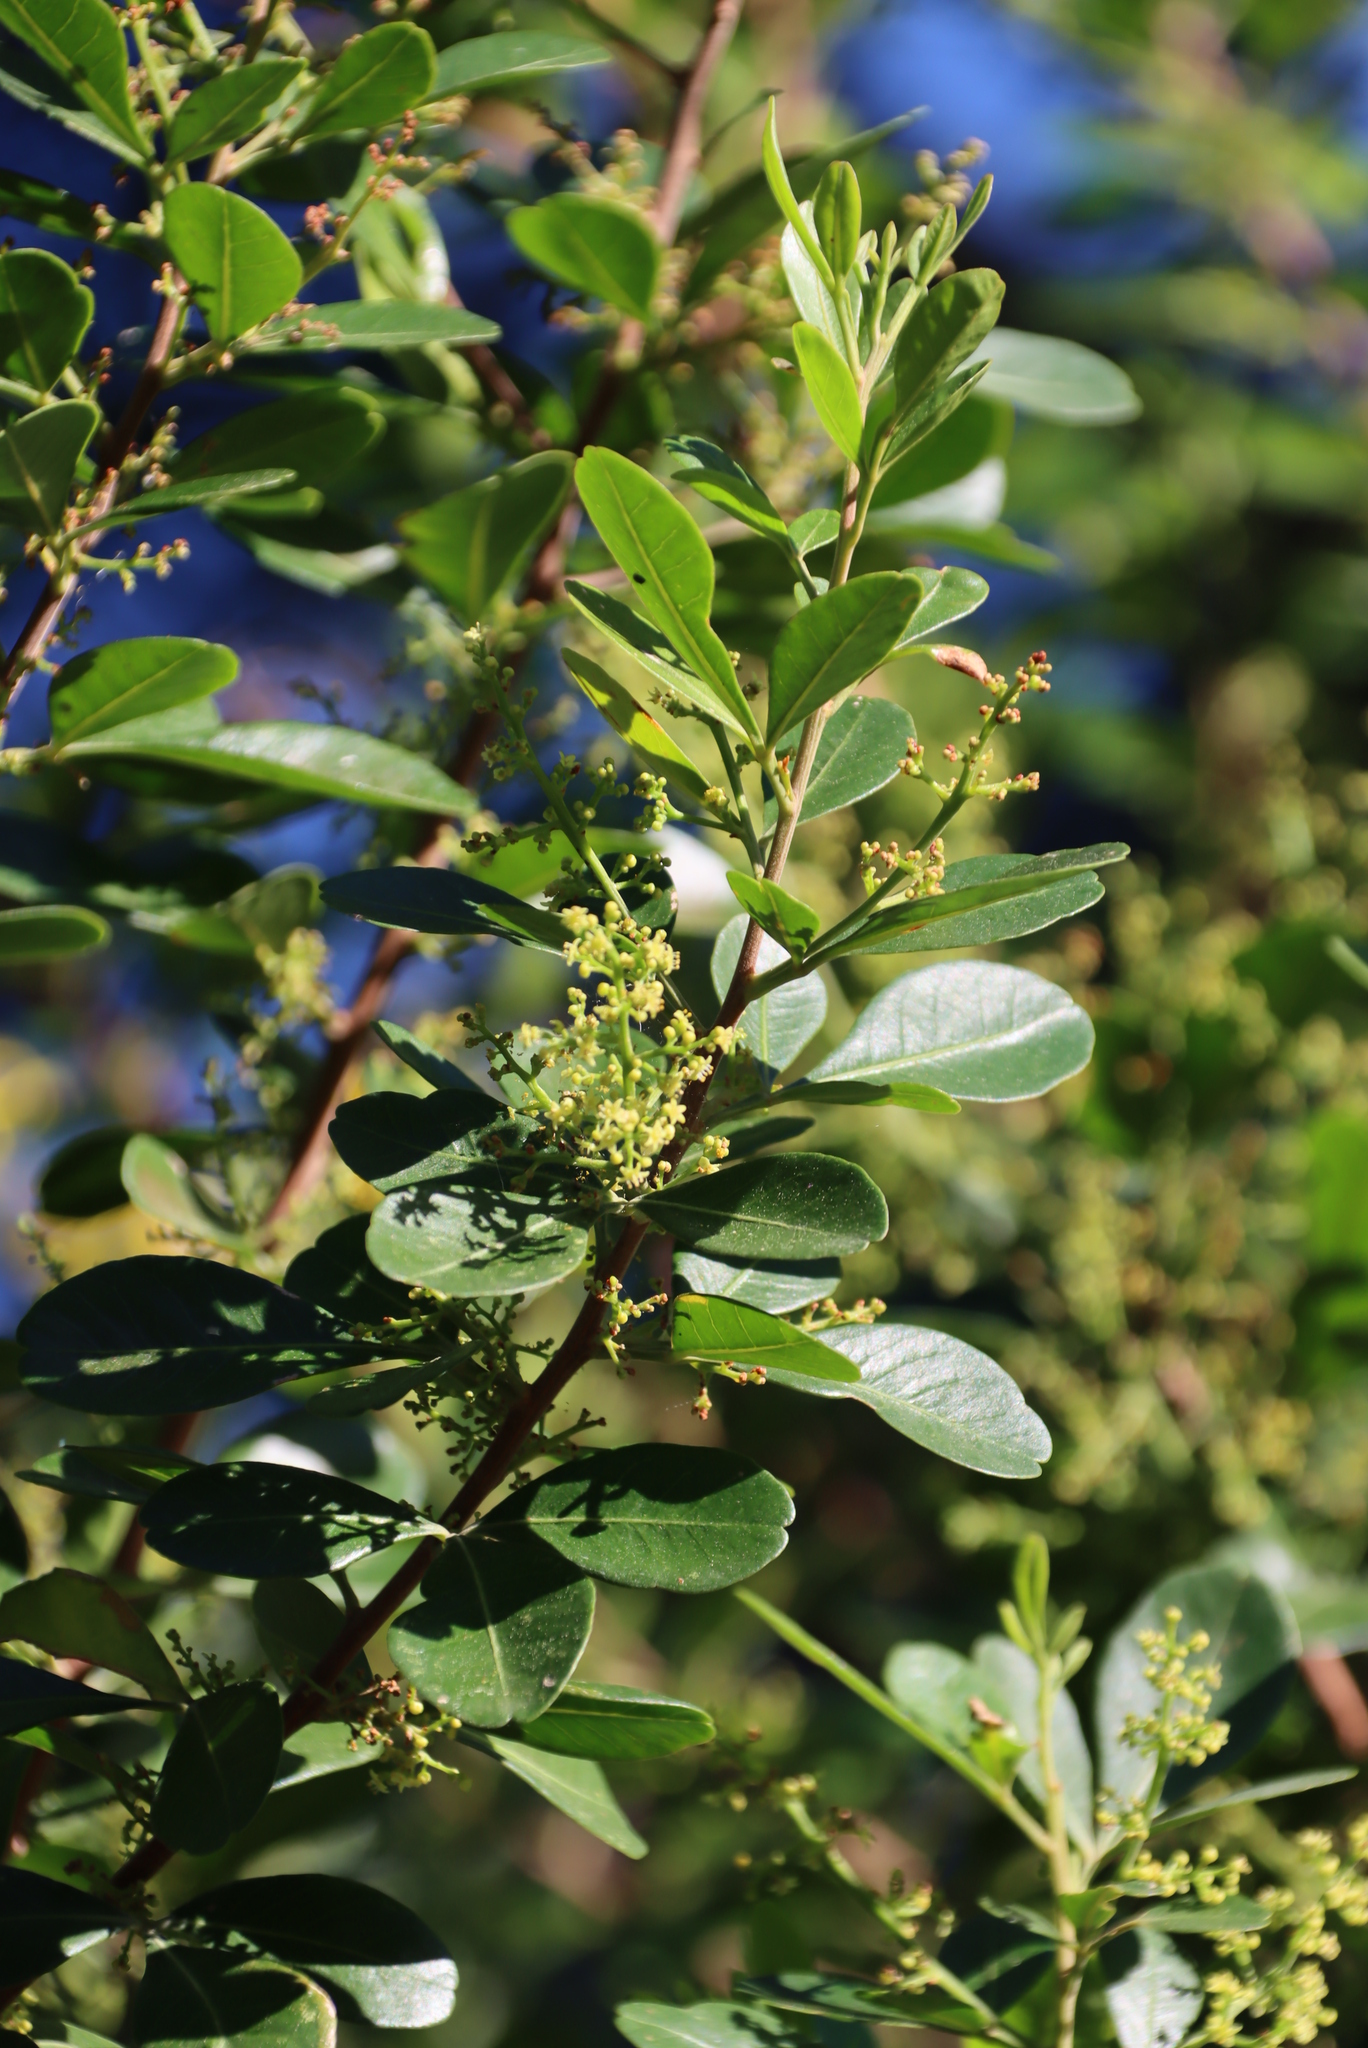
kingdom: Plantae
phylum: Tracheophyta
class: Magnoliopsida
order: Sapindales
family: Anacardiaceae
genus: Searsia
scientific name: Searsia lucida
